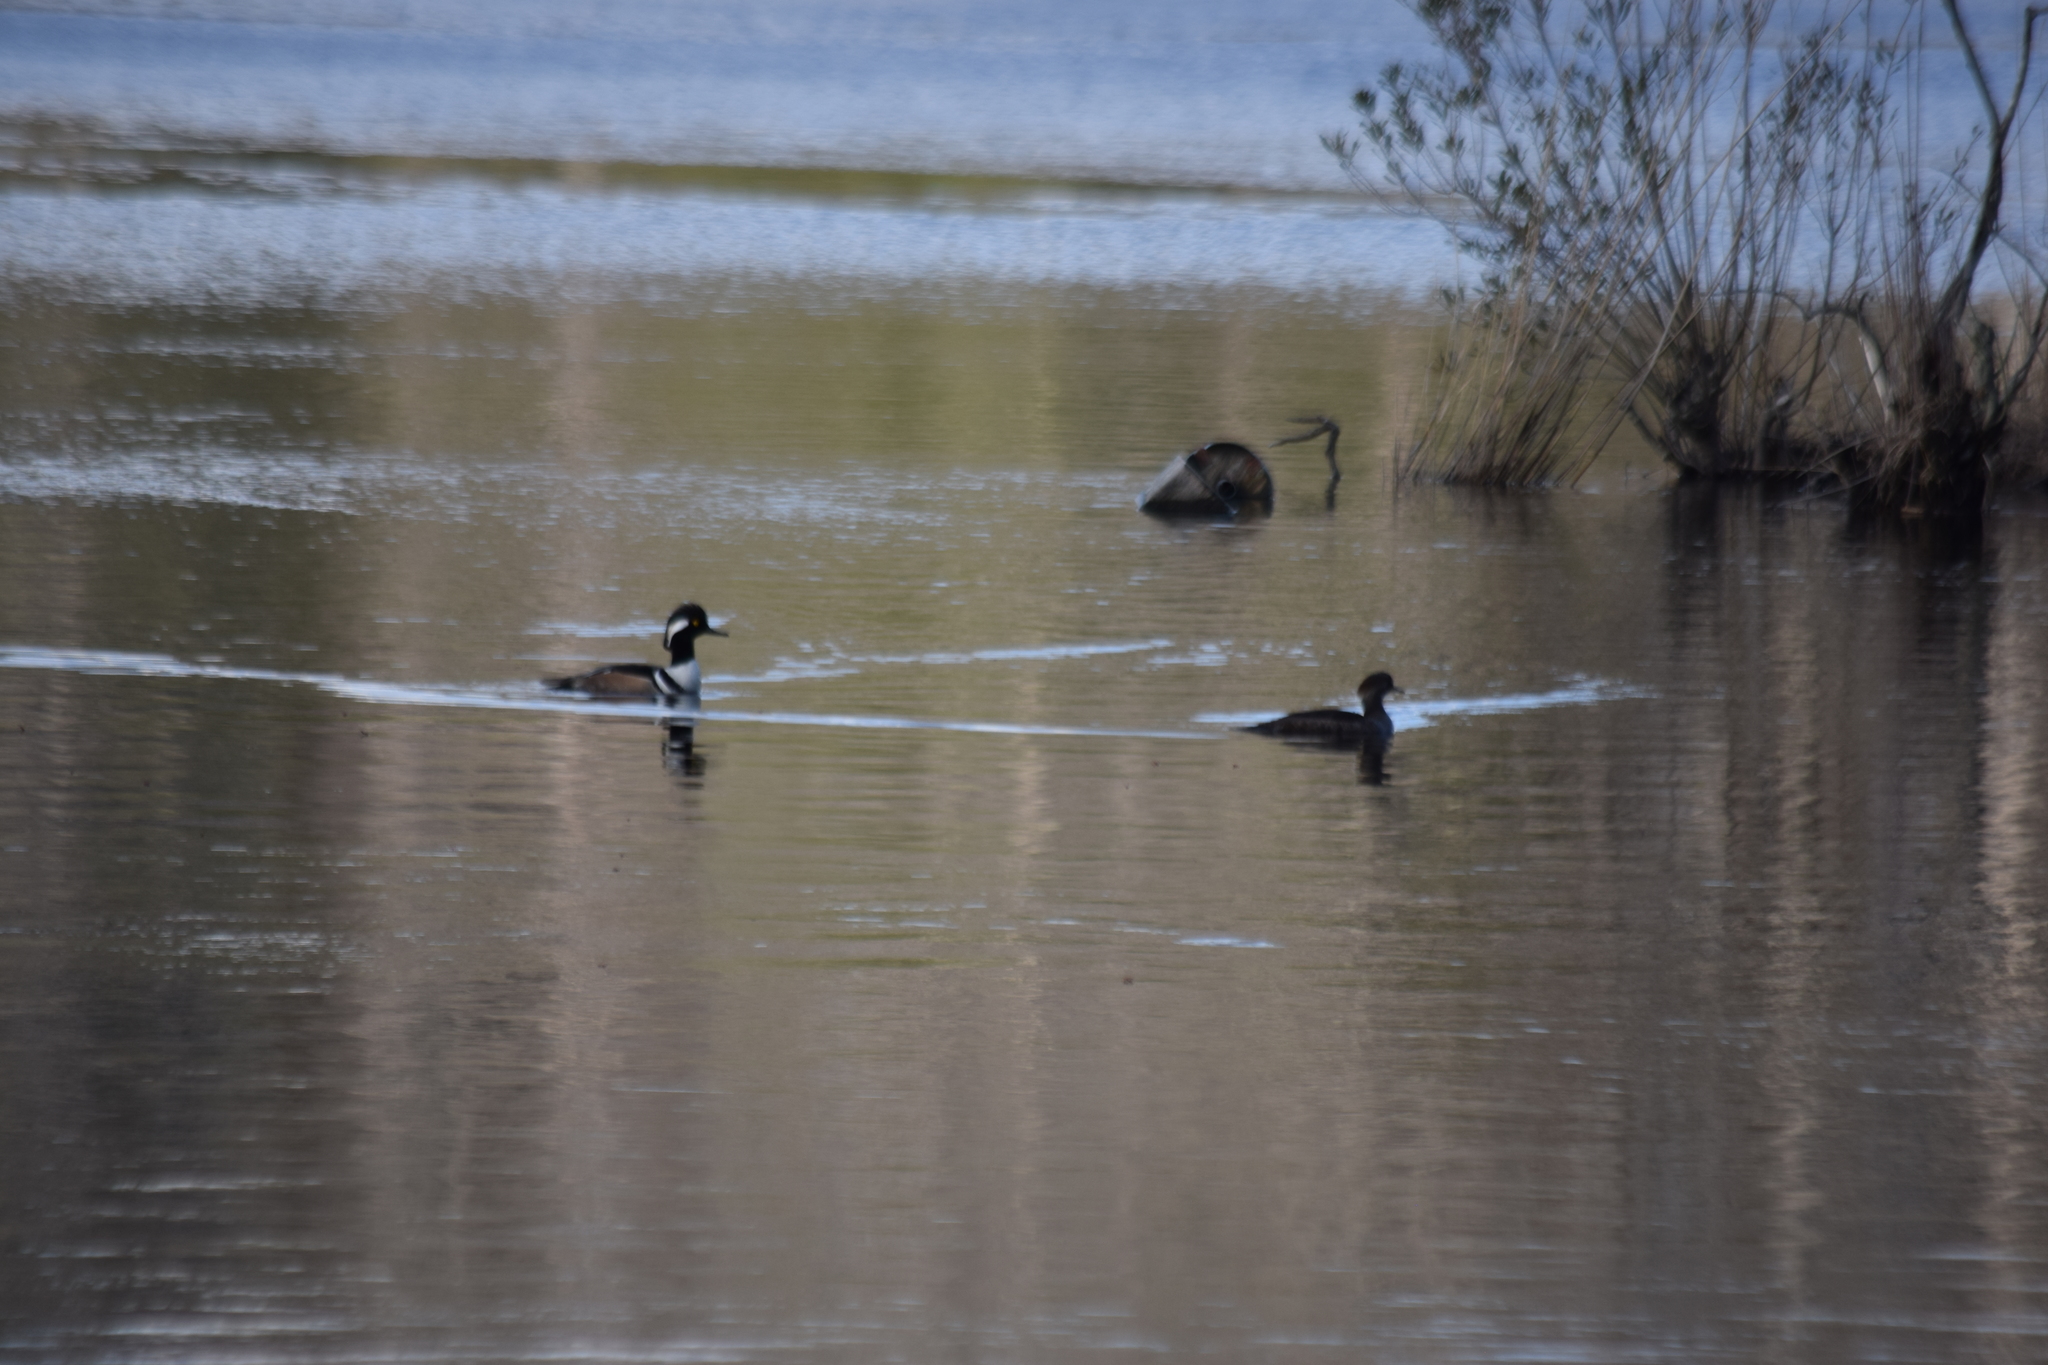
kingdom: Animalia
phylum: Chordata
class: Aves
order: Anseriformes
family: Anatidae
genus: Lophodytes
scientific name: Lophodytes cucullatus
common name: Hooded merganser
